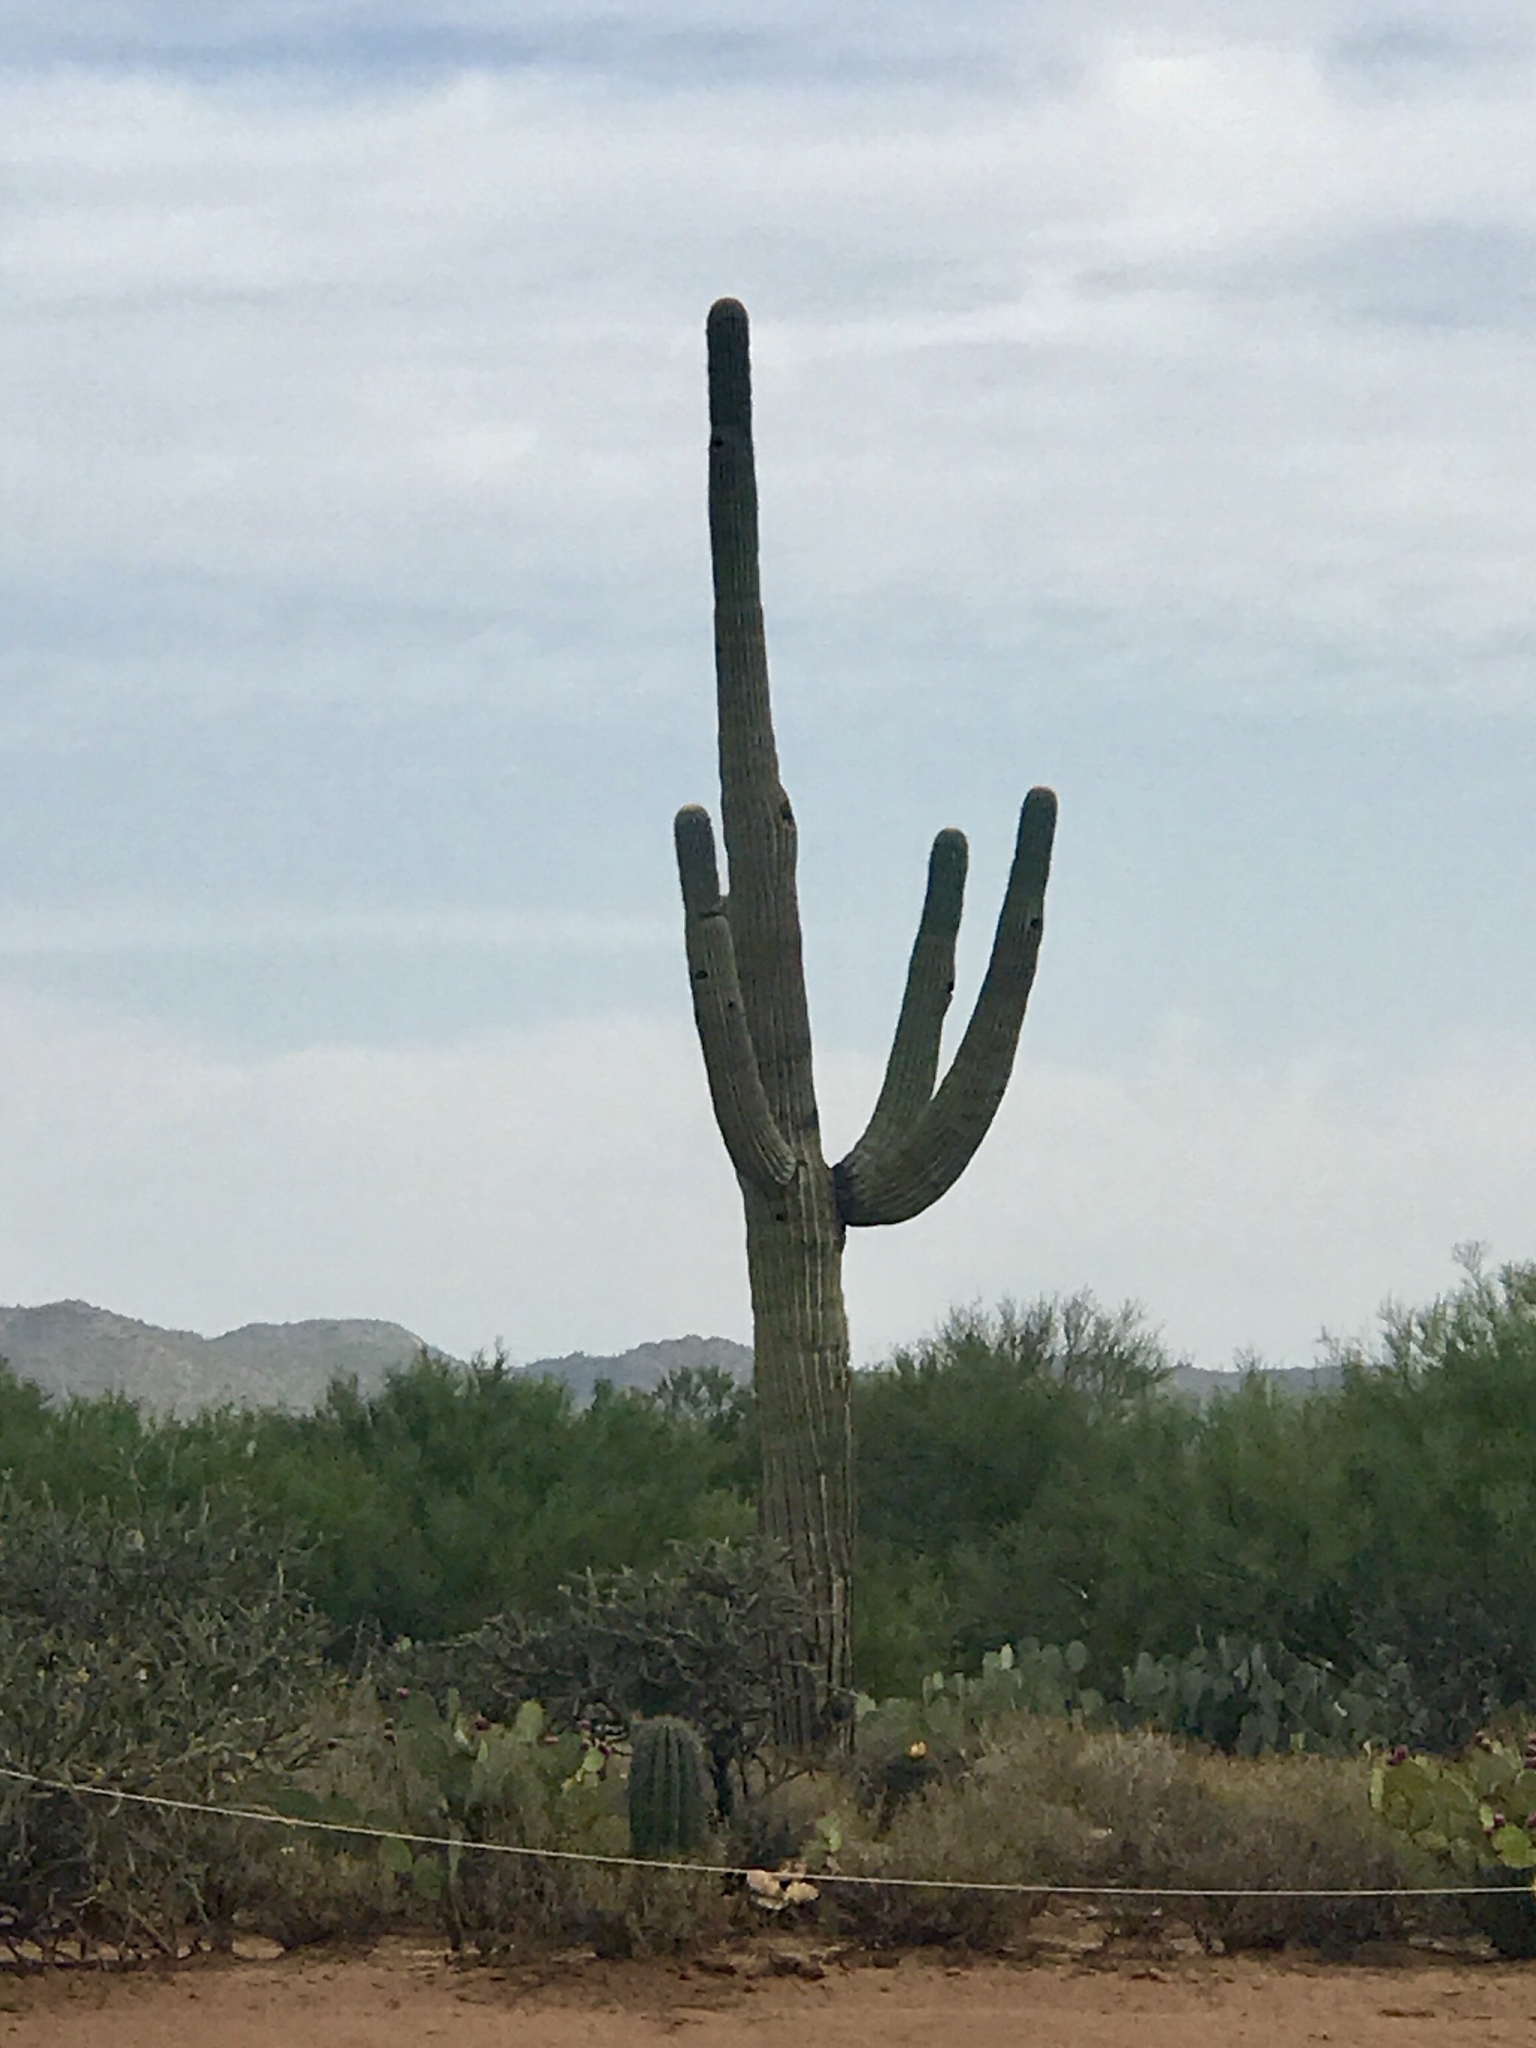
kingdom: Plantae
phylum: Tracheophyta
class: Magnoliopsida
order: Caryophyllales
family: Cactaceae
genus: Carnegiea
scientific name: Carnegiea gigantea
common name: Saguaro
